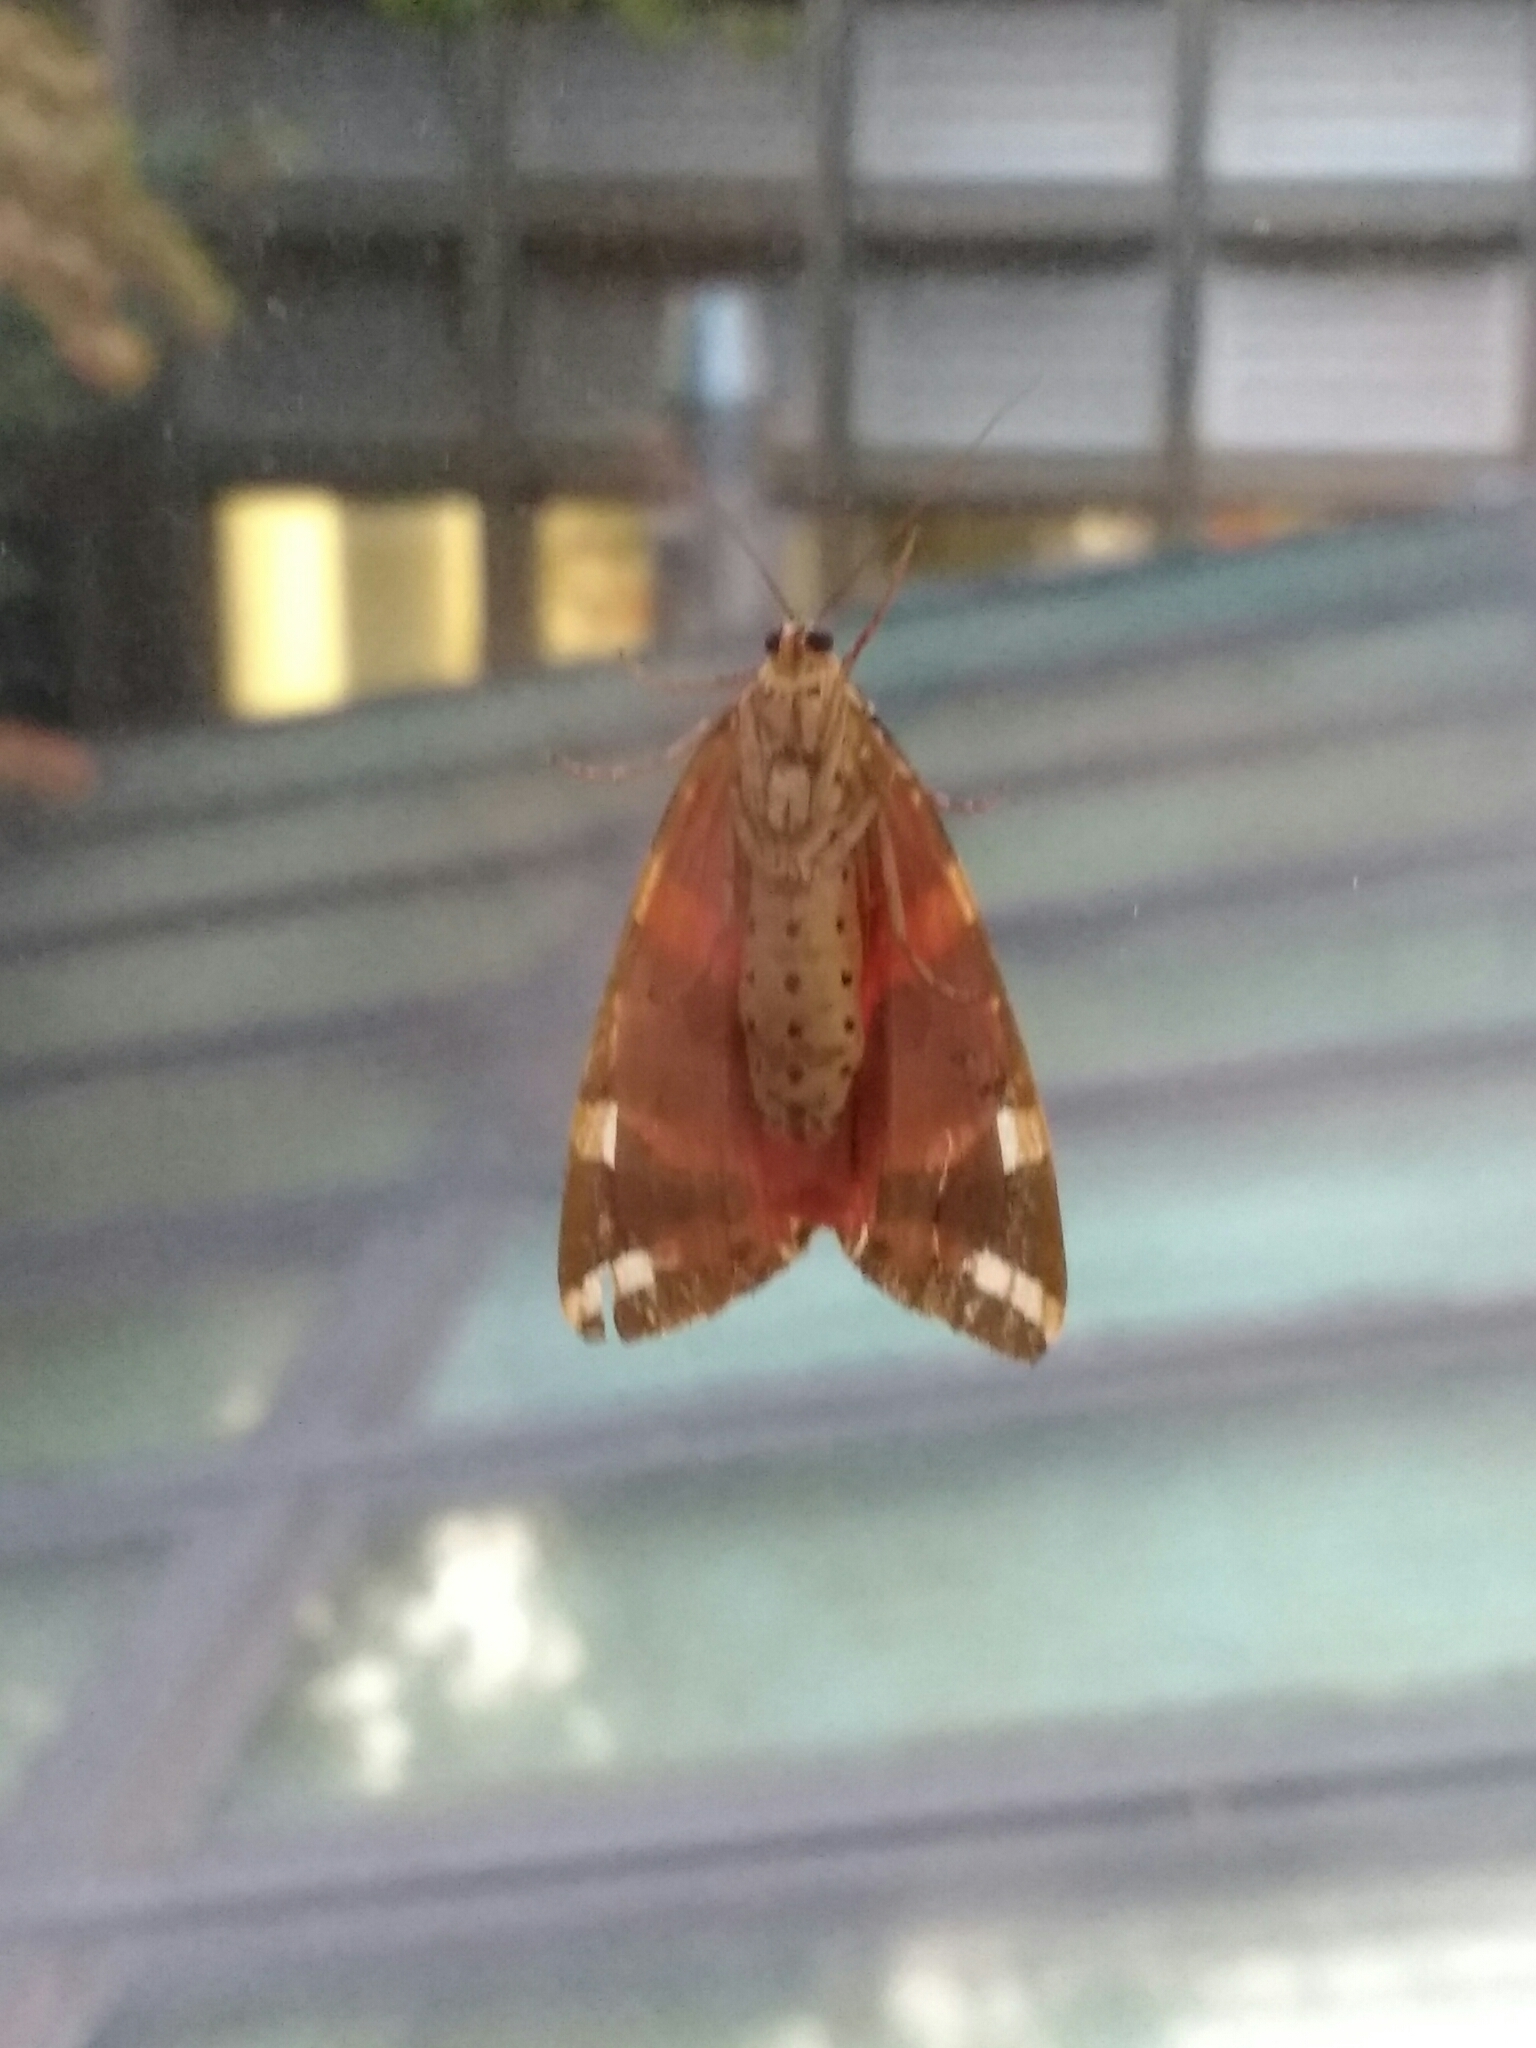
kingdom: Animalia
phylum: Arthropoda
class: Insecta
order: Lepidoptera
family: Erebidae
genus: Euplagia
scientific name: Euplagia quadripunctaria
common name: Jersey tiger
